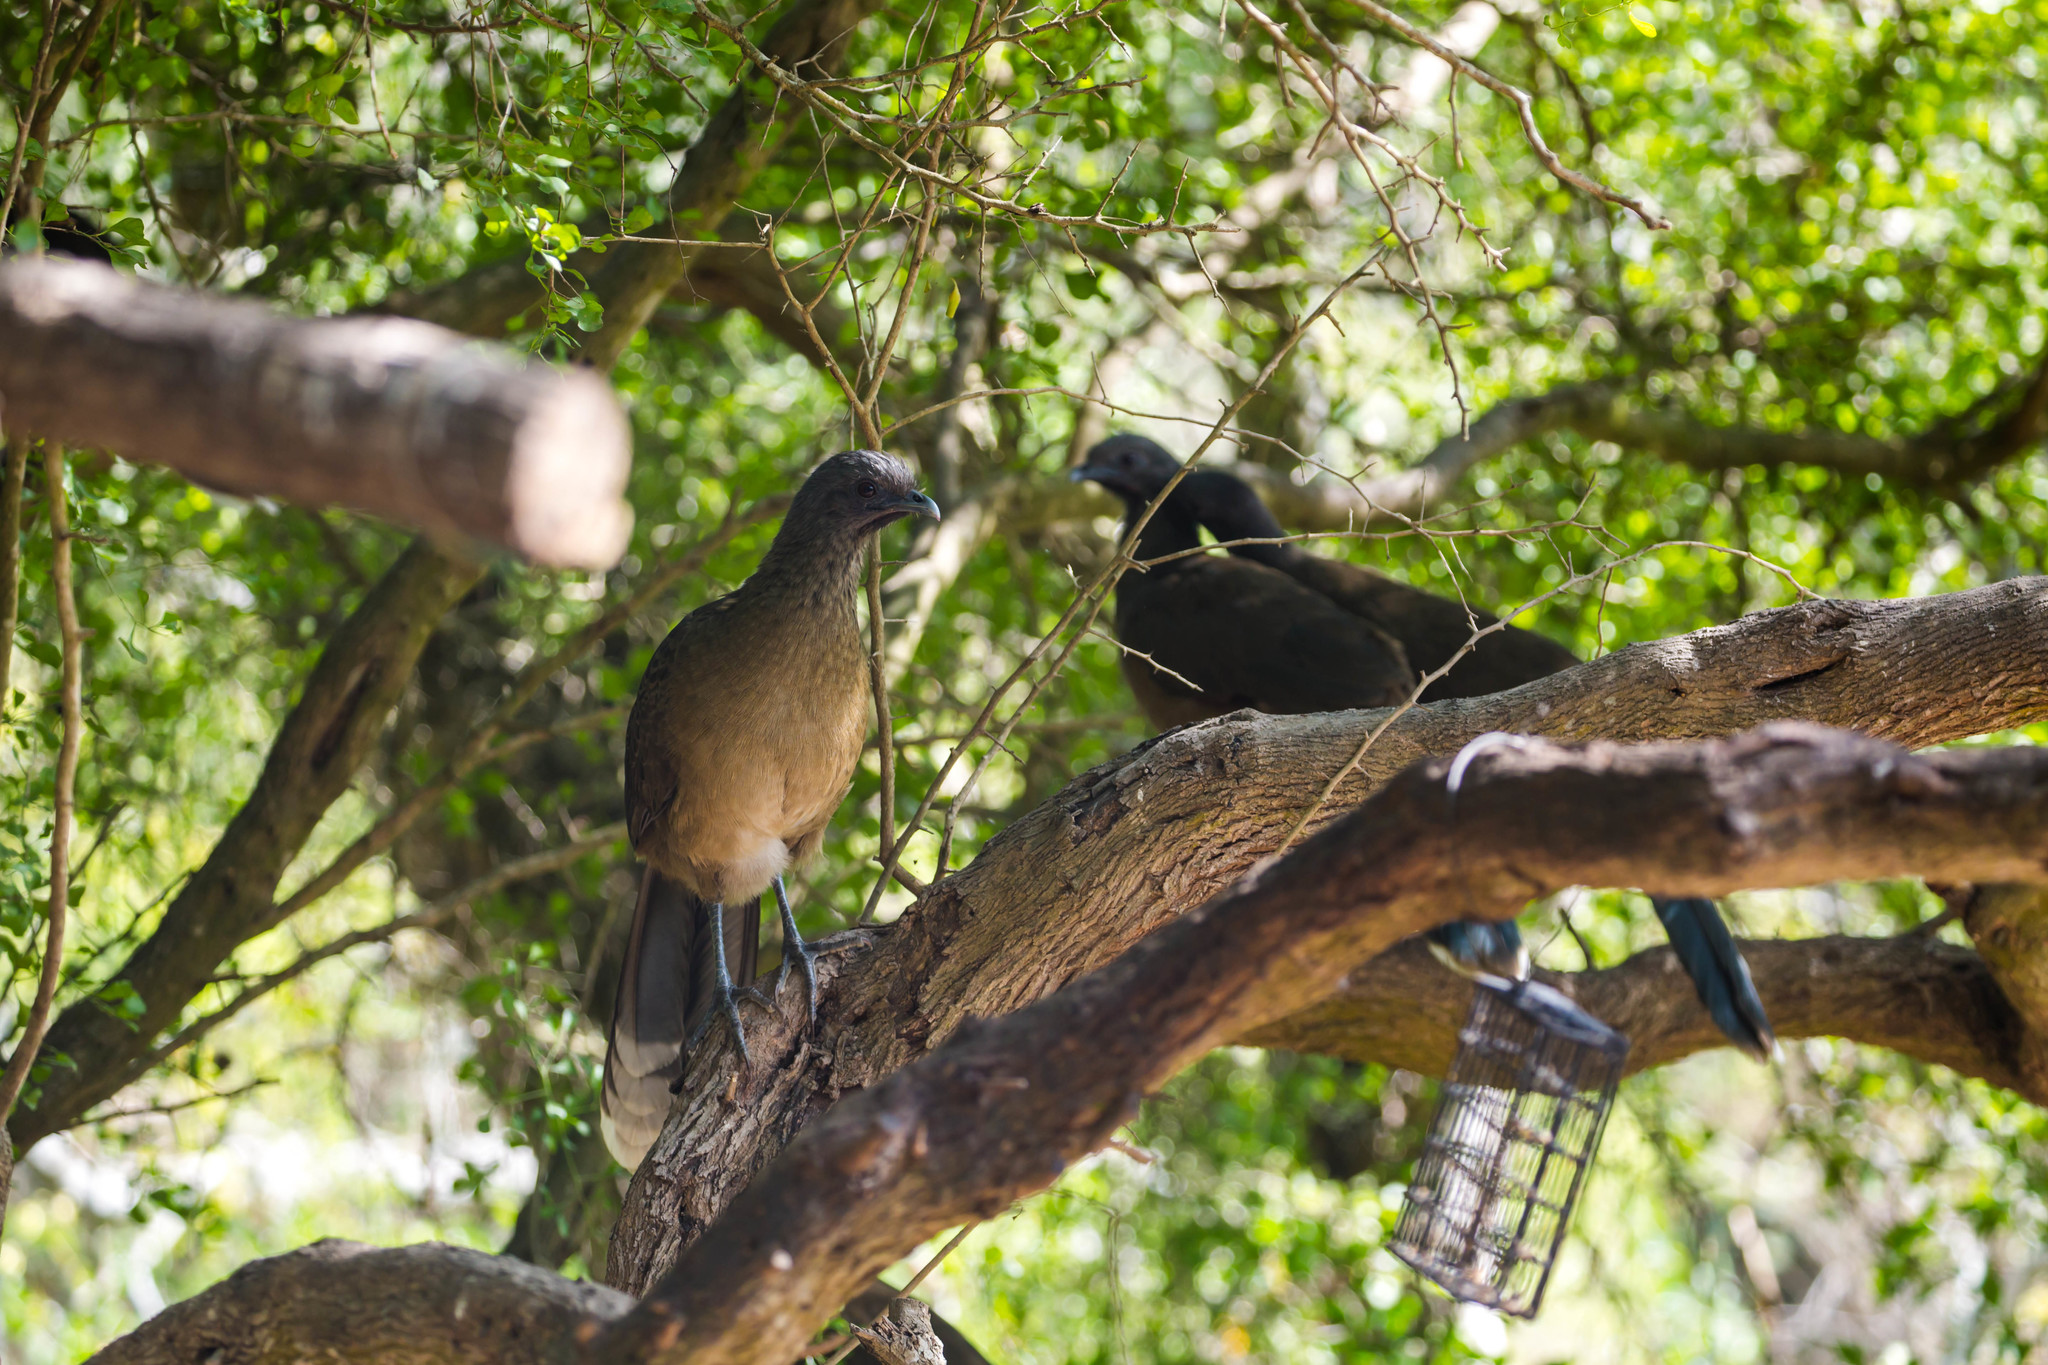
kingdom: Animalia
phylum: Chordata
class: Aves
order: Galliformes
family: Cracidae
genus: Ortalis
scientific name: Ortalis vetula
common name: Plain chachalaca
